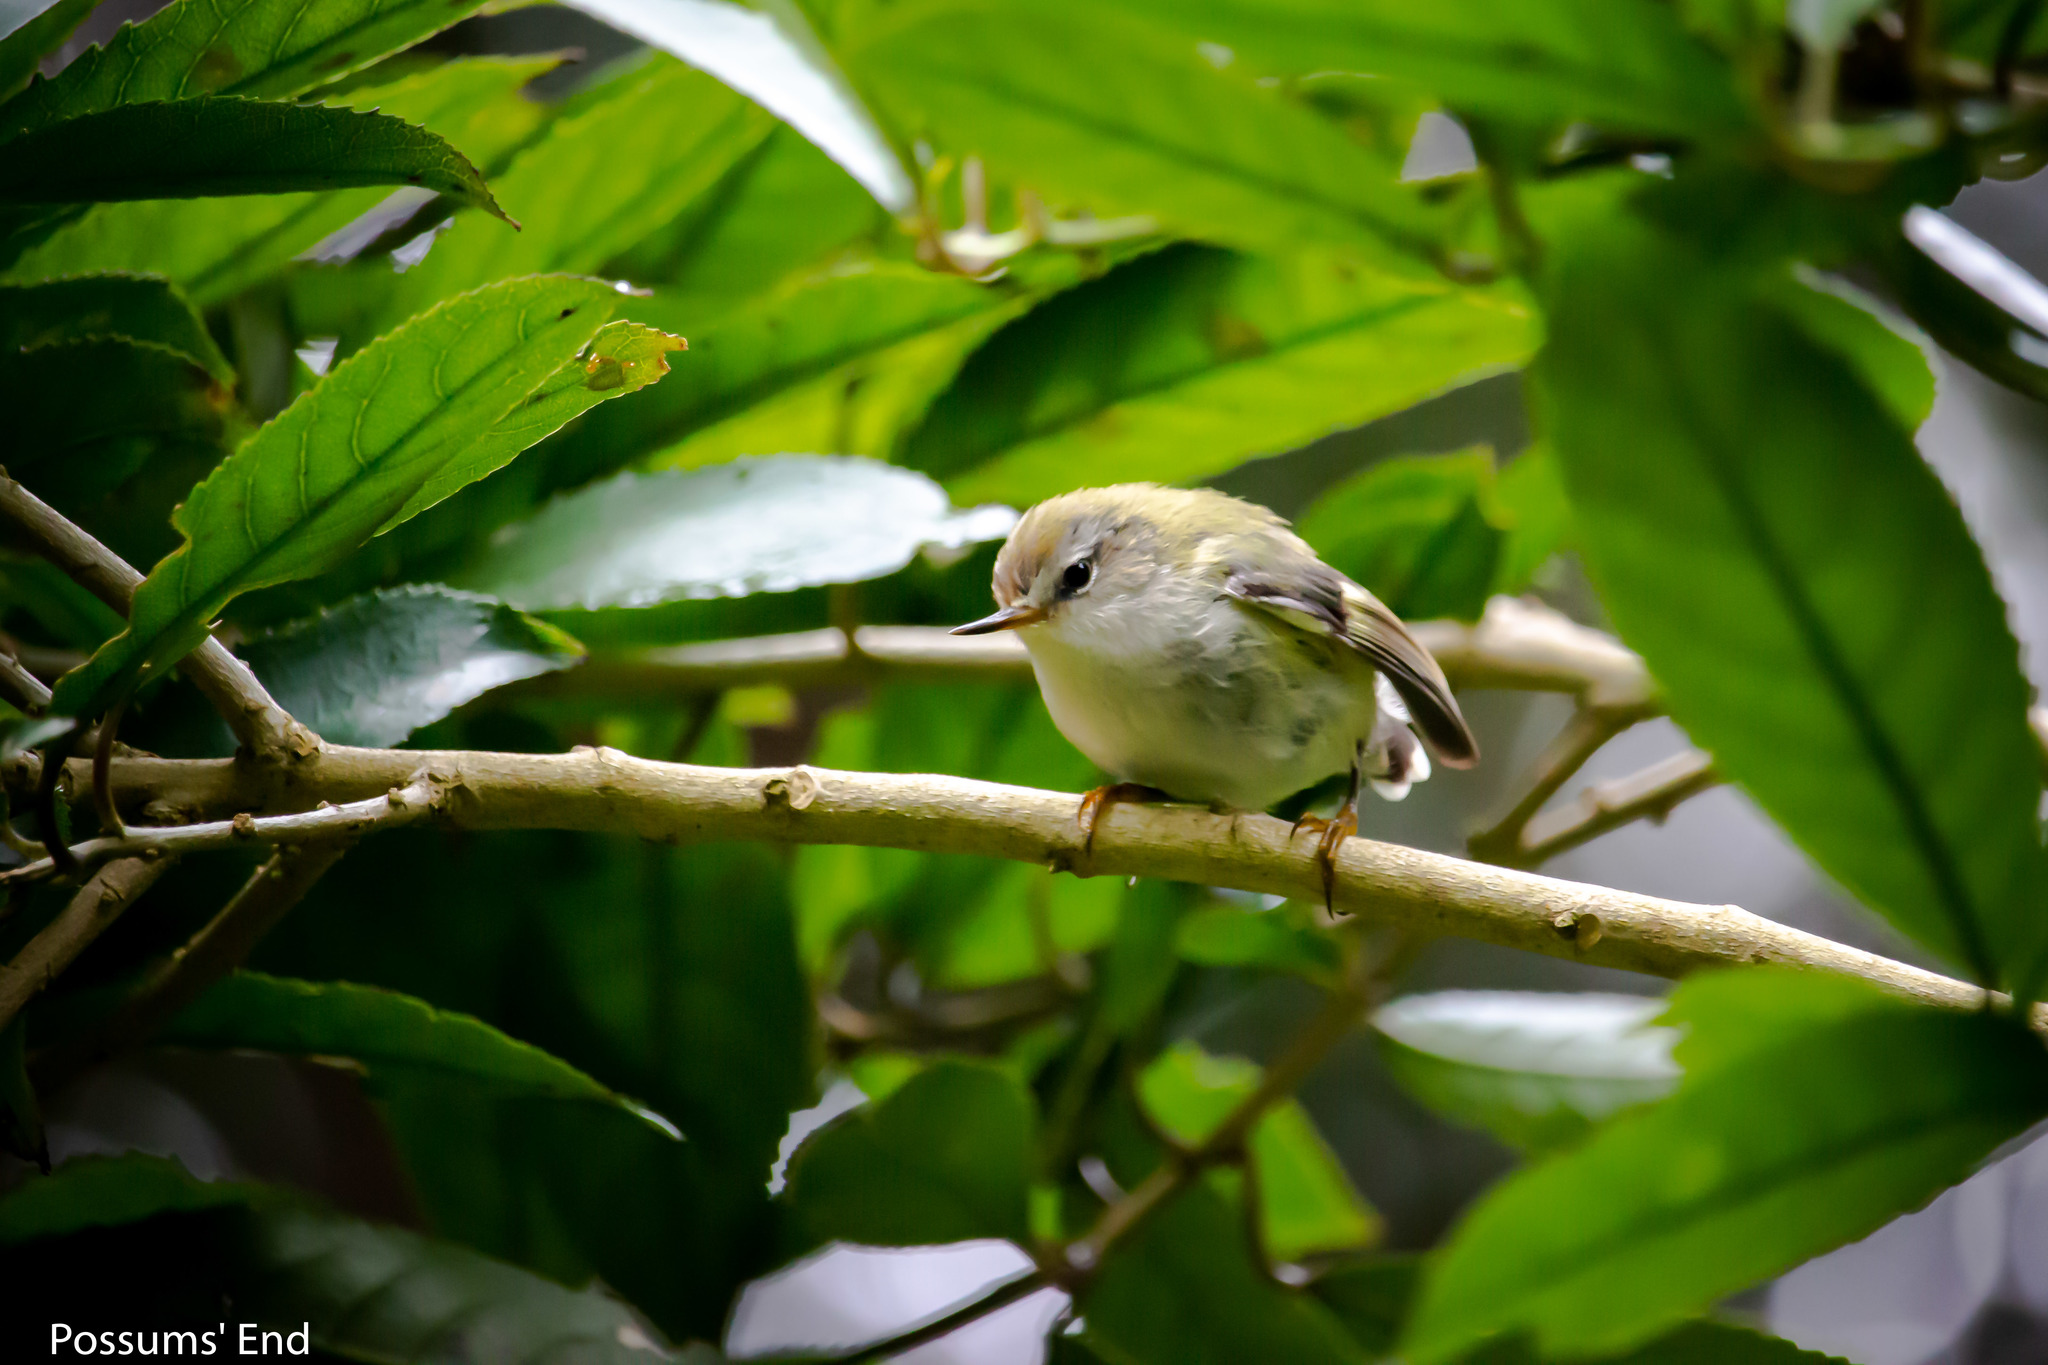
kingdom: Animalia
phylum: Chordata
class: Aves
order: Passeriformes
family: Acanthisittidae
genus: Acanthisitta
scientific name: Acanthisitta chloris
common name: Rifleman
